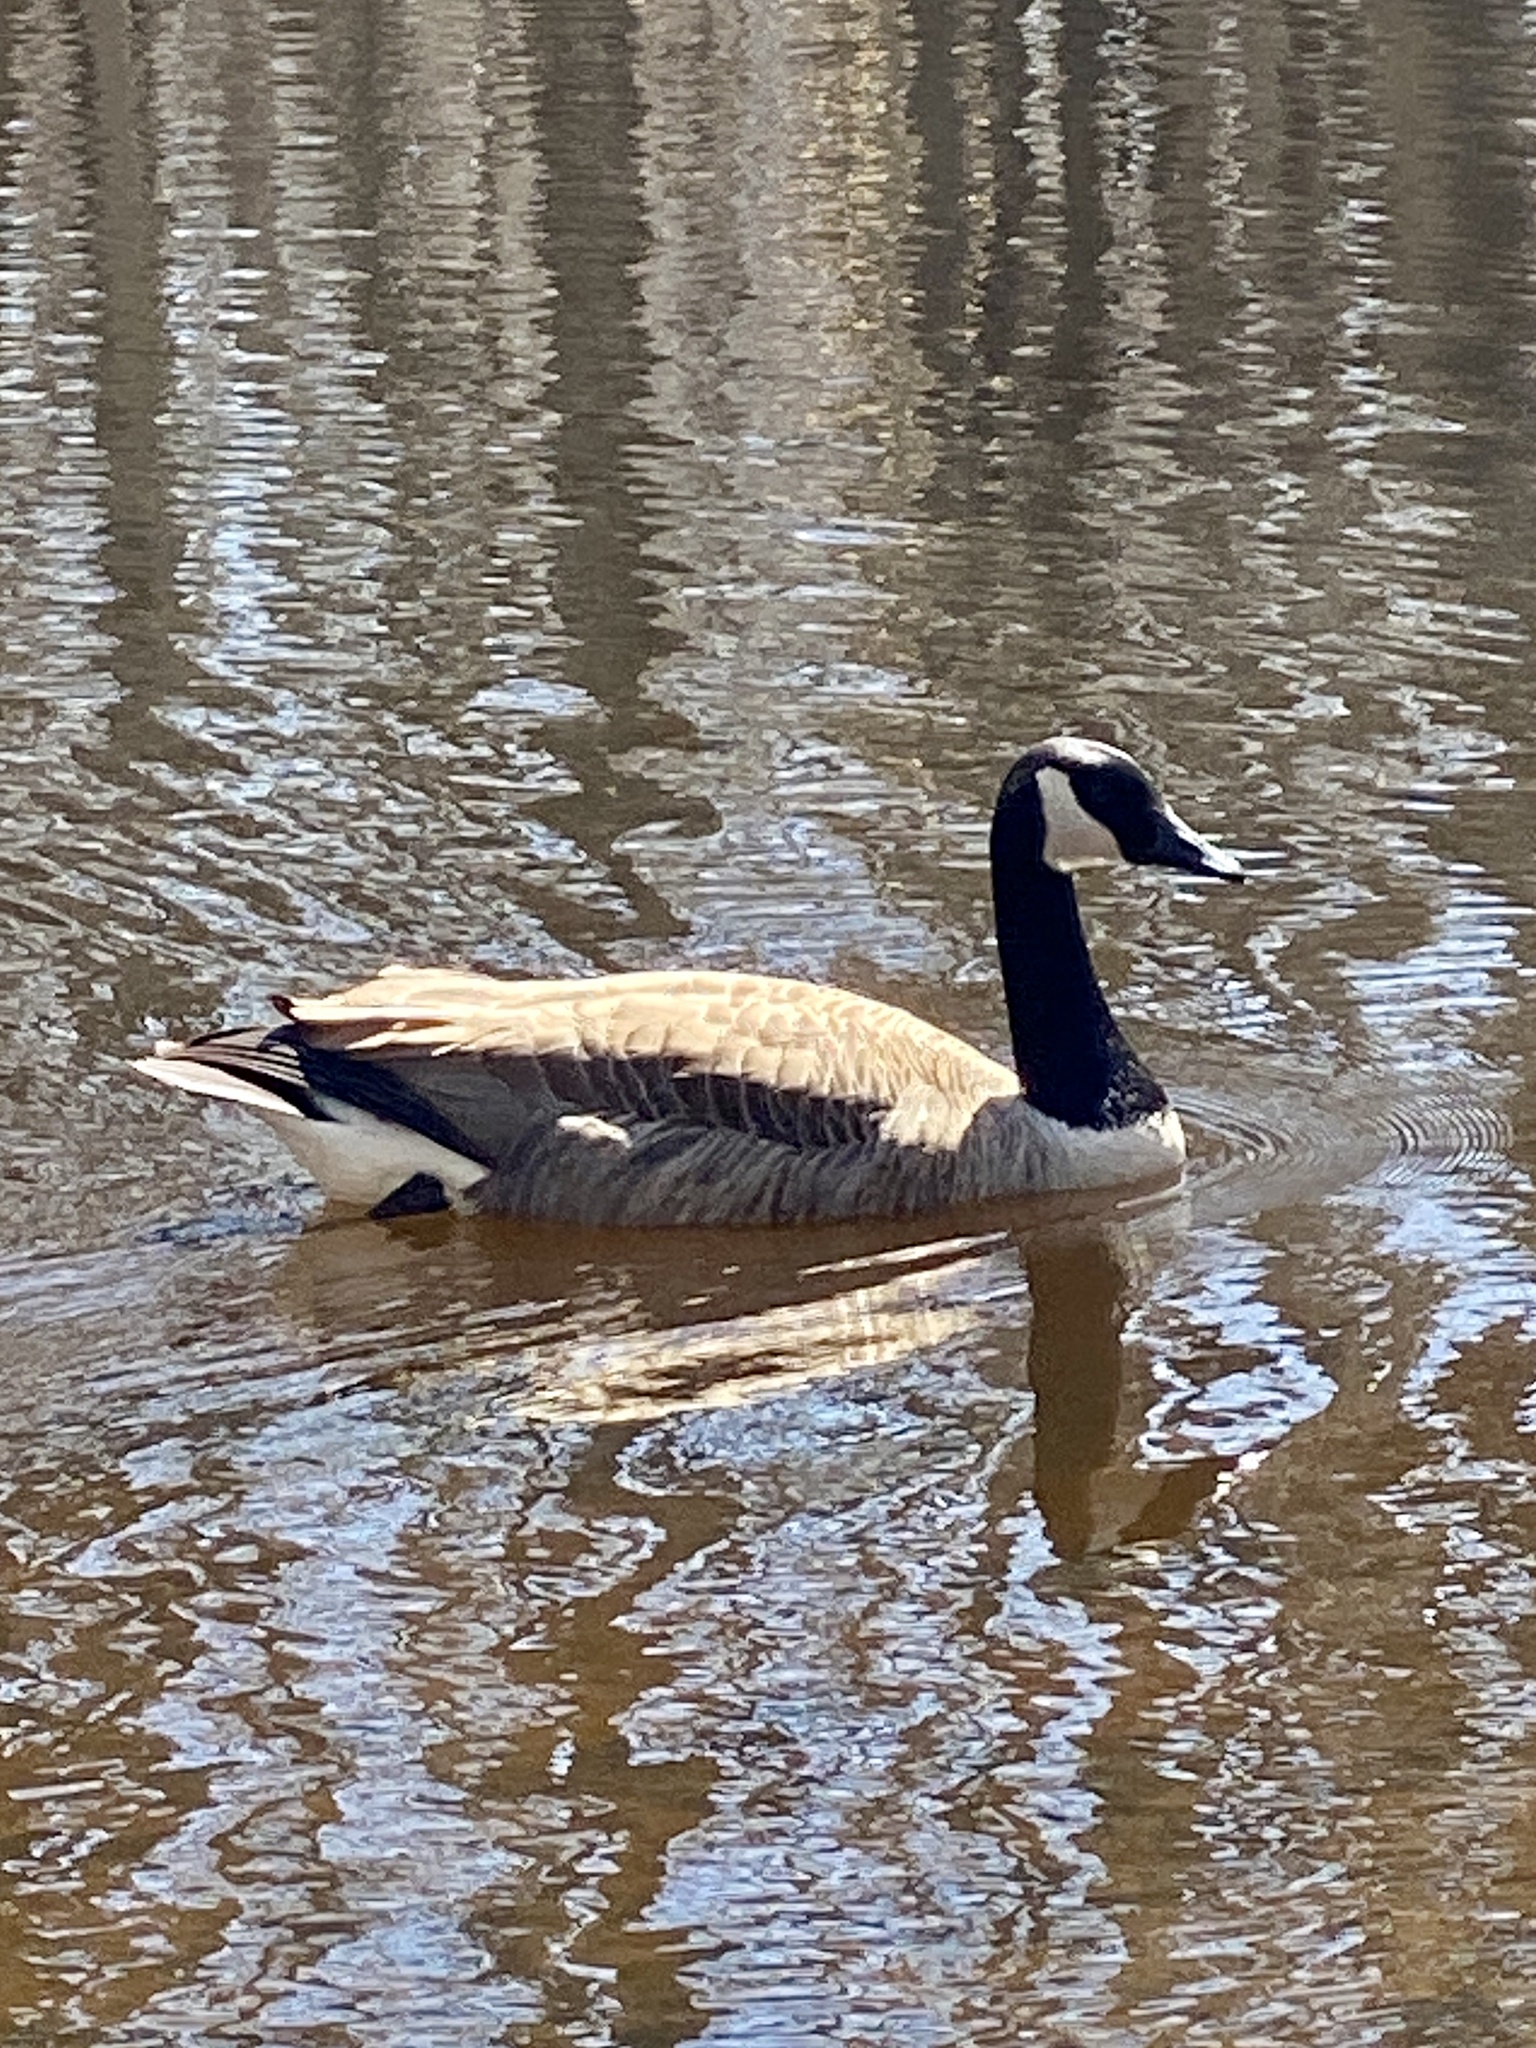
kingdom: Animalia
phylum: Chordata
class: Aves
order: Anseriformes
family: Anatidae
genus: Branta
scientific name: Branta canadensis
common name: Canada goose
